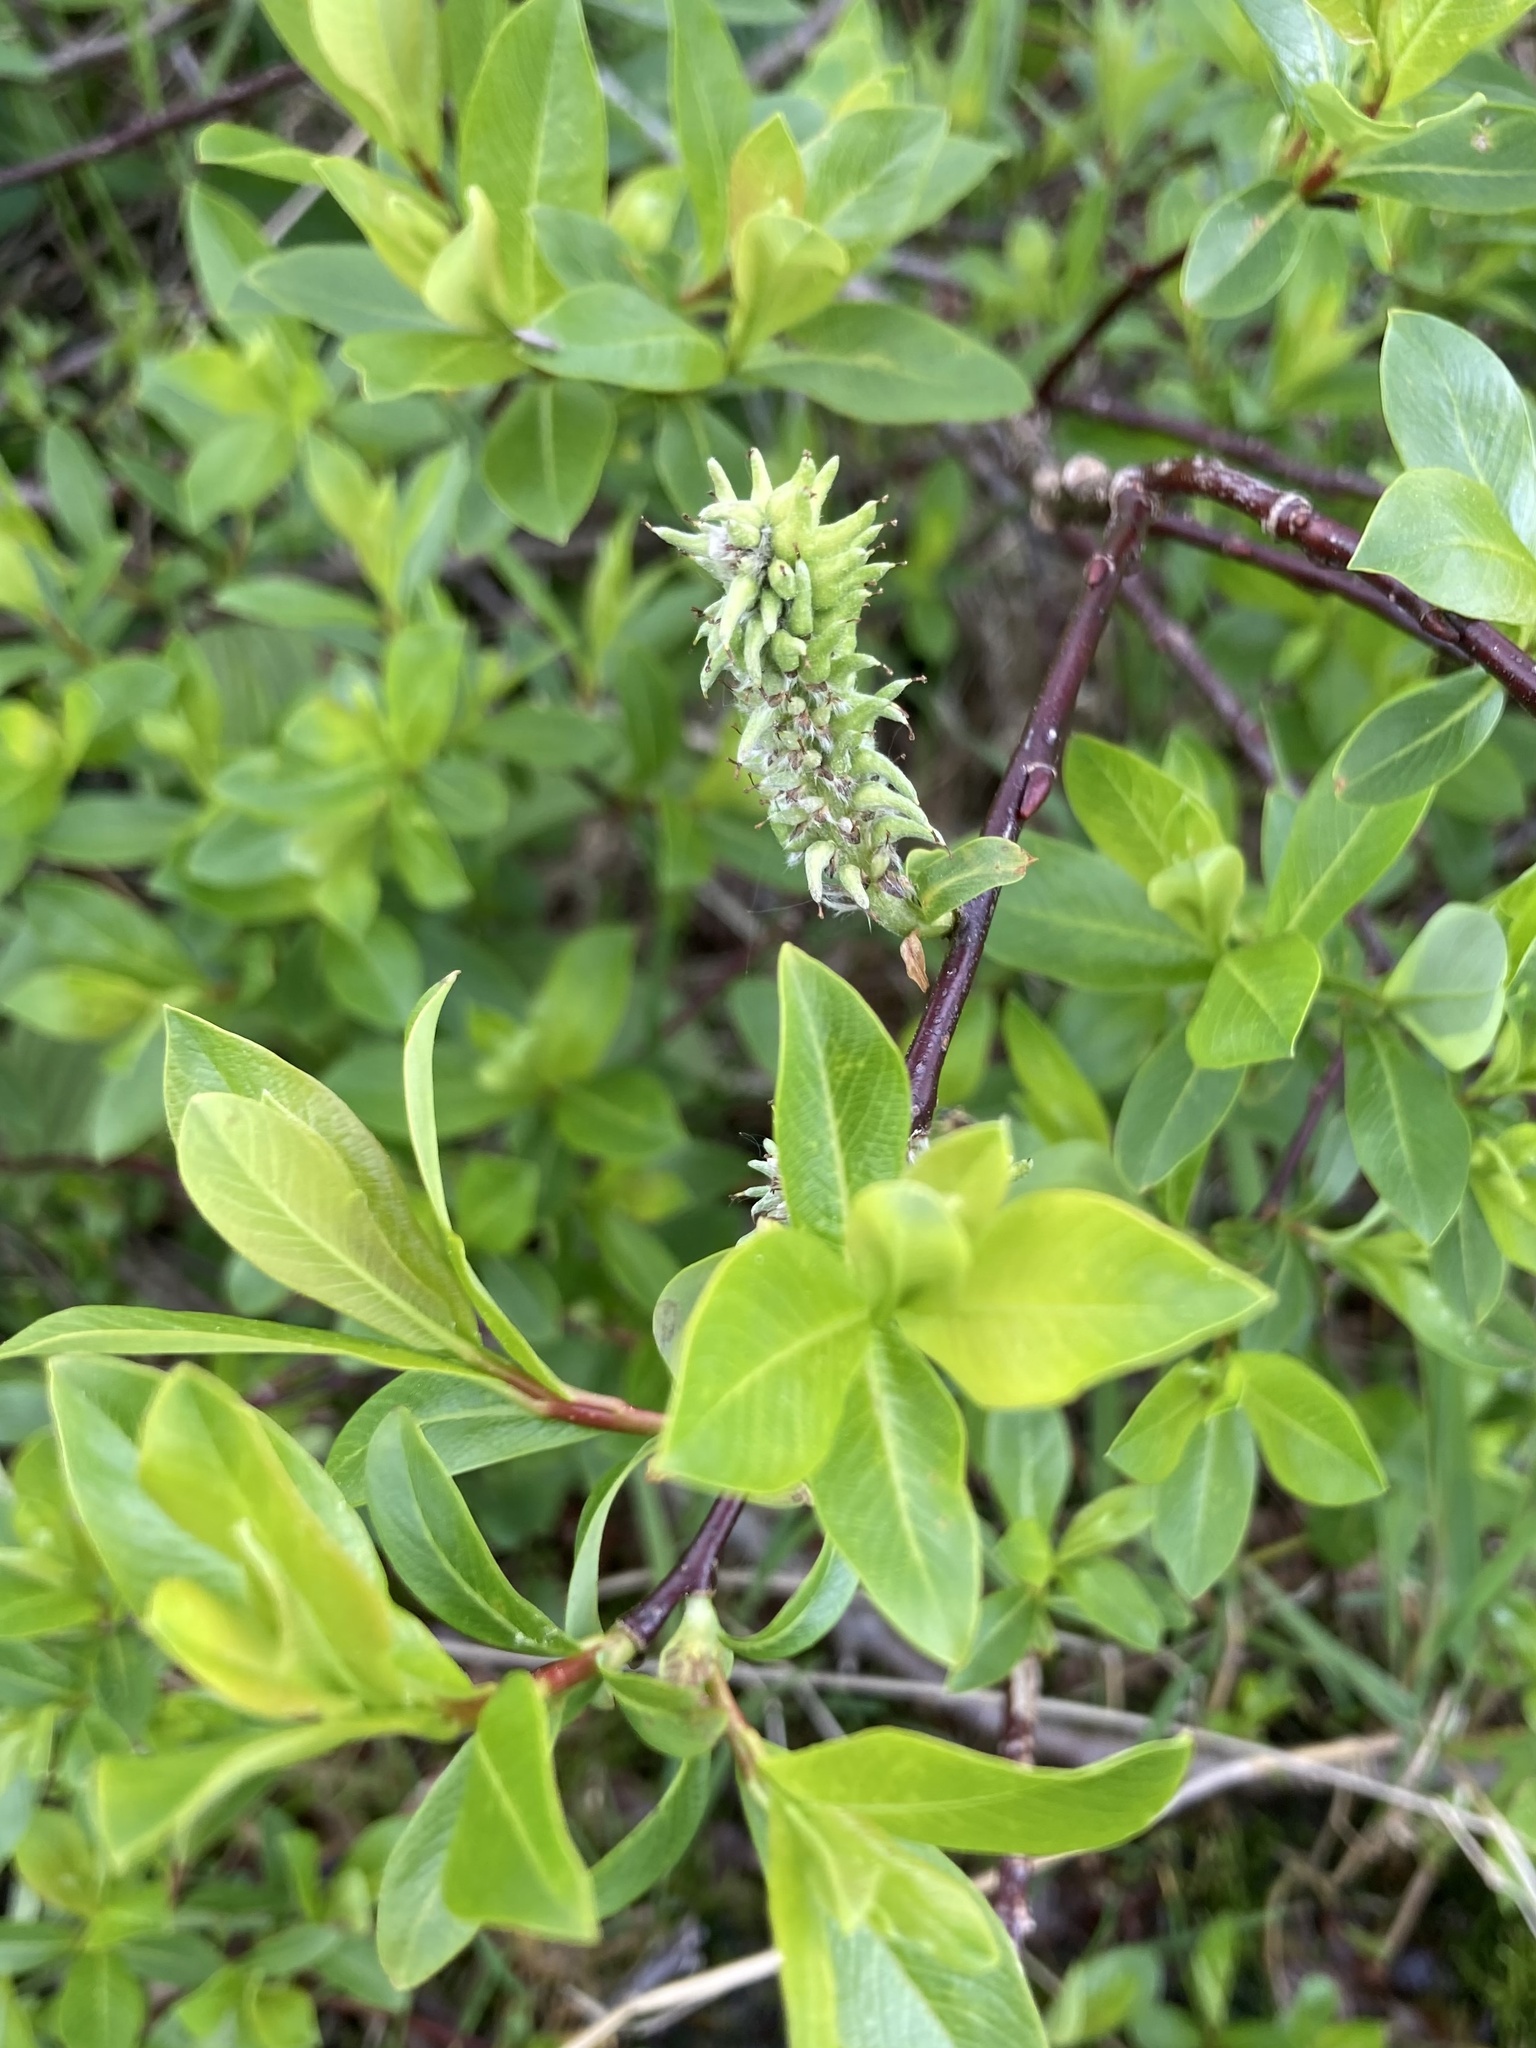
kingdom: Plantae
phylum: Tracheophyta
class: Magnoliopsida
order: Malpighiales
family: Salicaceae
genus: Salix
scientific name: Salix planifolia
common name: Mountain willow
